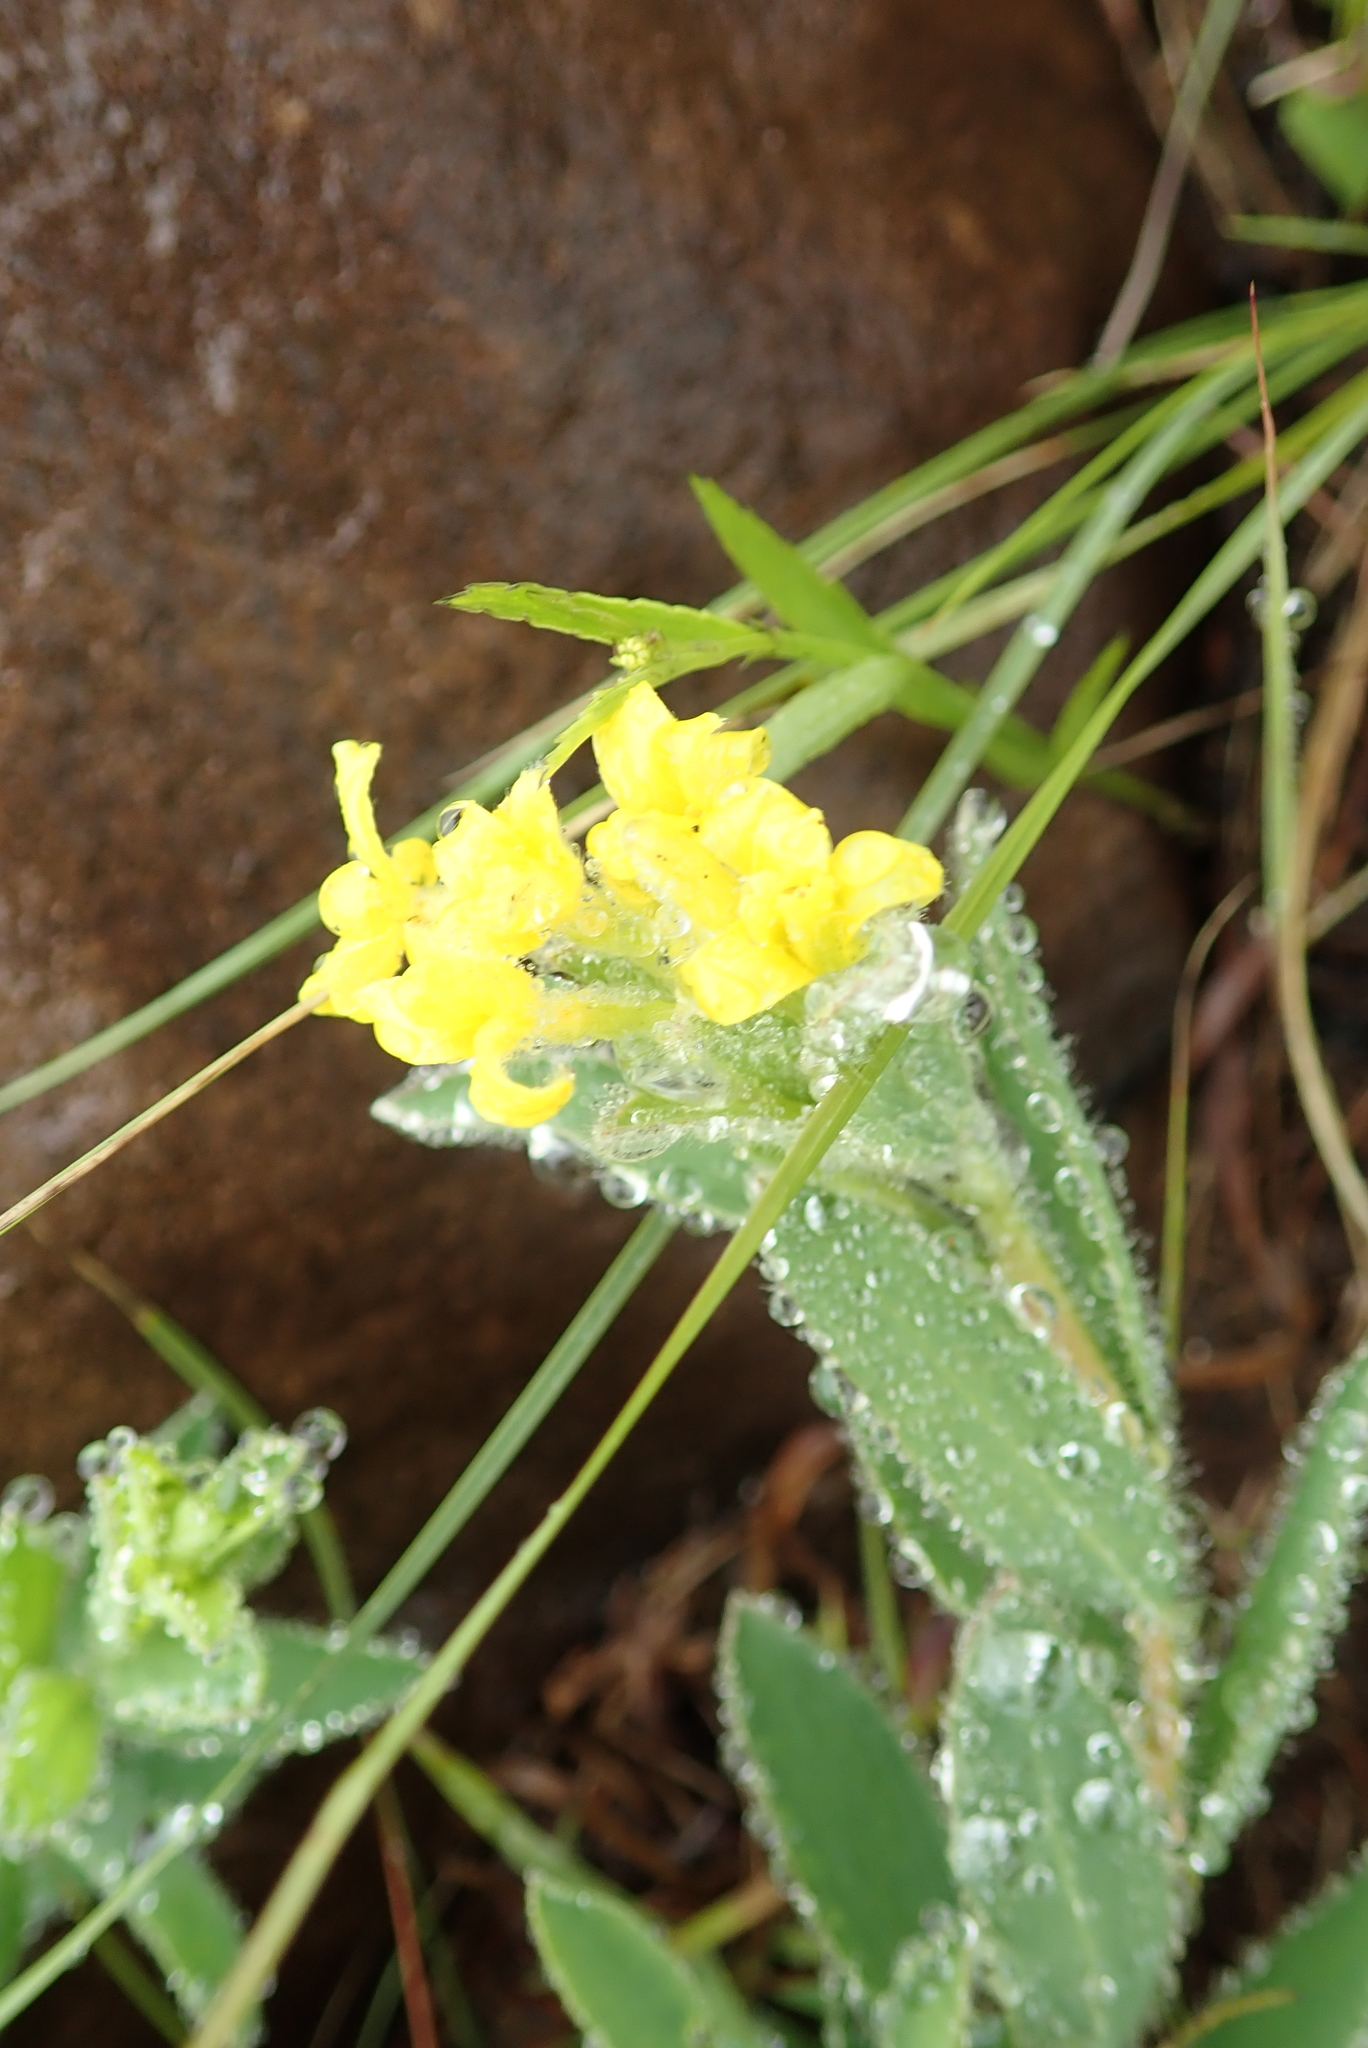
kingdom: Plantae
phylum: Tracheophyta
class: Magnoliopsida
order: Malvales
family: Thymelaeaceae
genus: Gnidia
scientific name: Gnidia caffra
